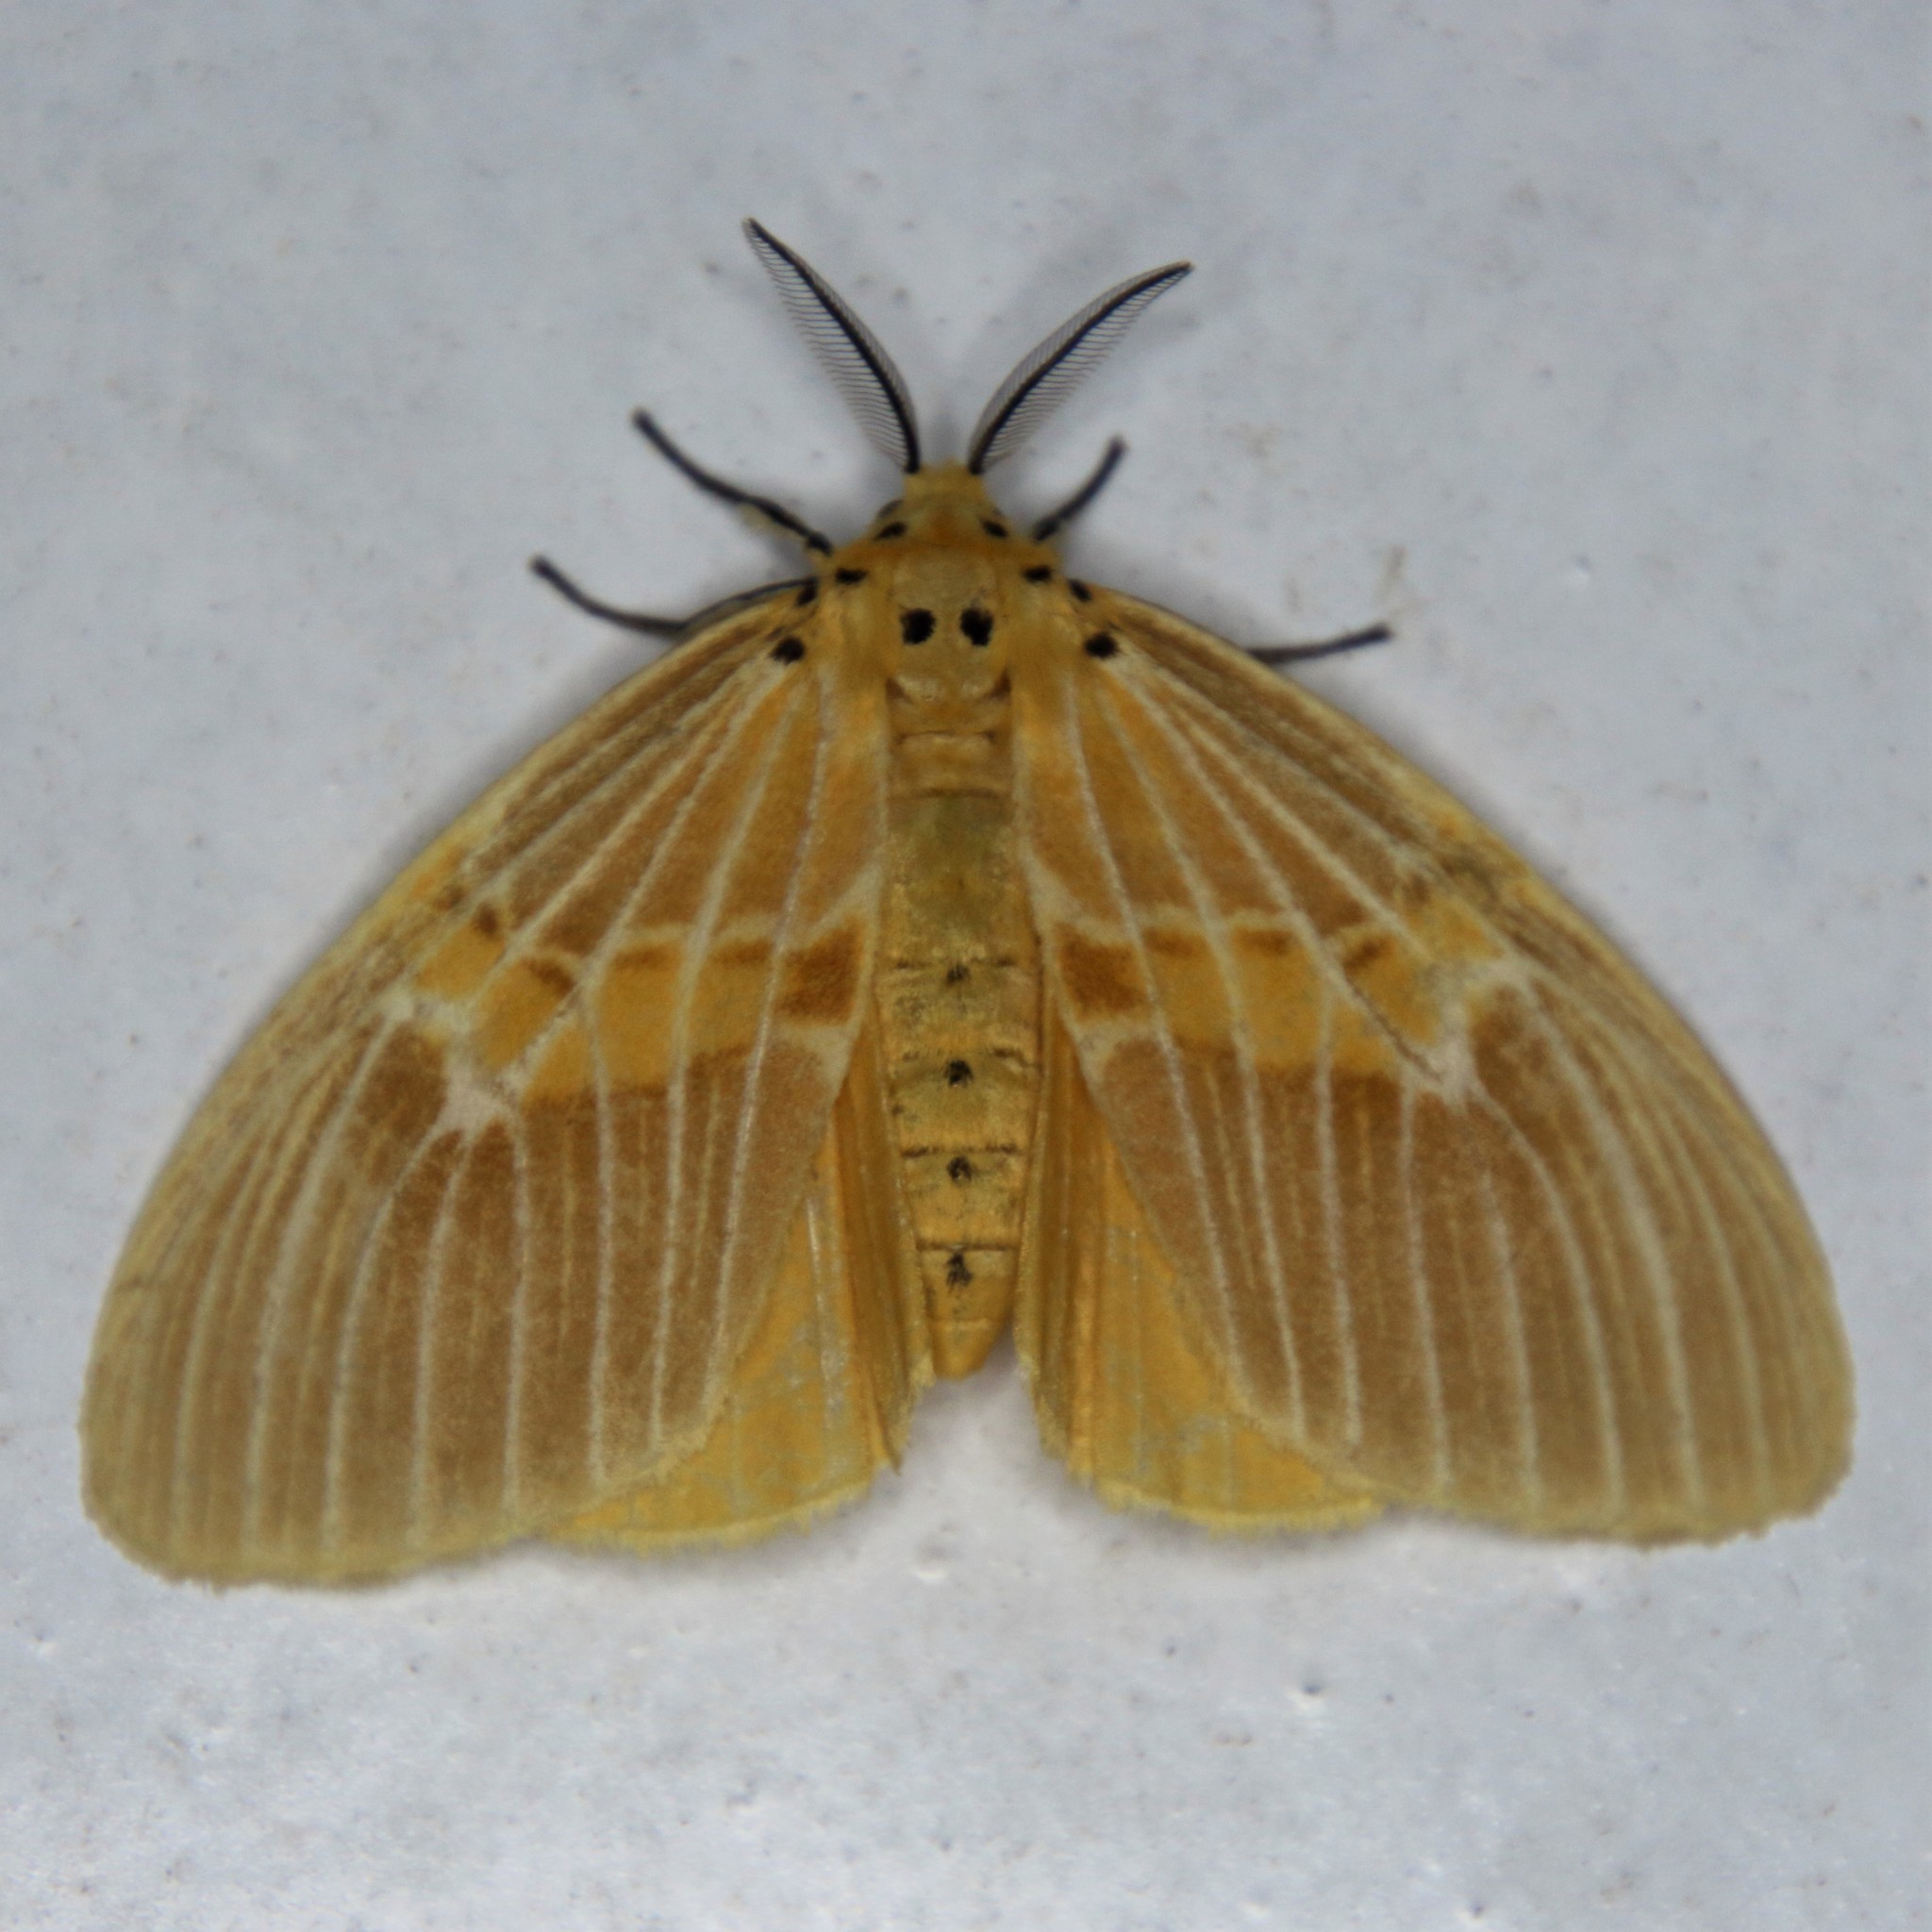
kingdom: Animalia
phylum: Arthropoda
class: Insecta
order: Lepidoptera
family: Erebidae
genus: Cispia
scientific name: Cispia punctifascia
